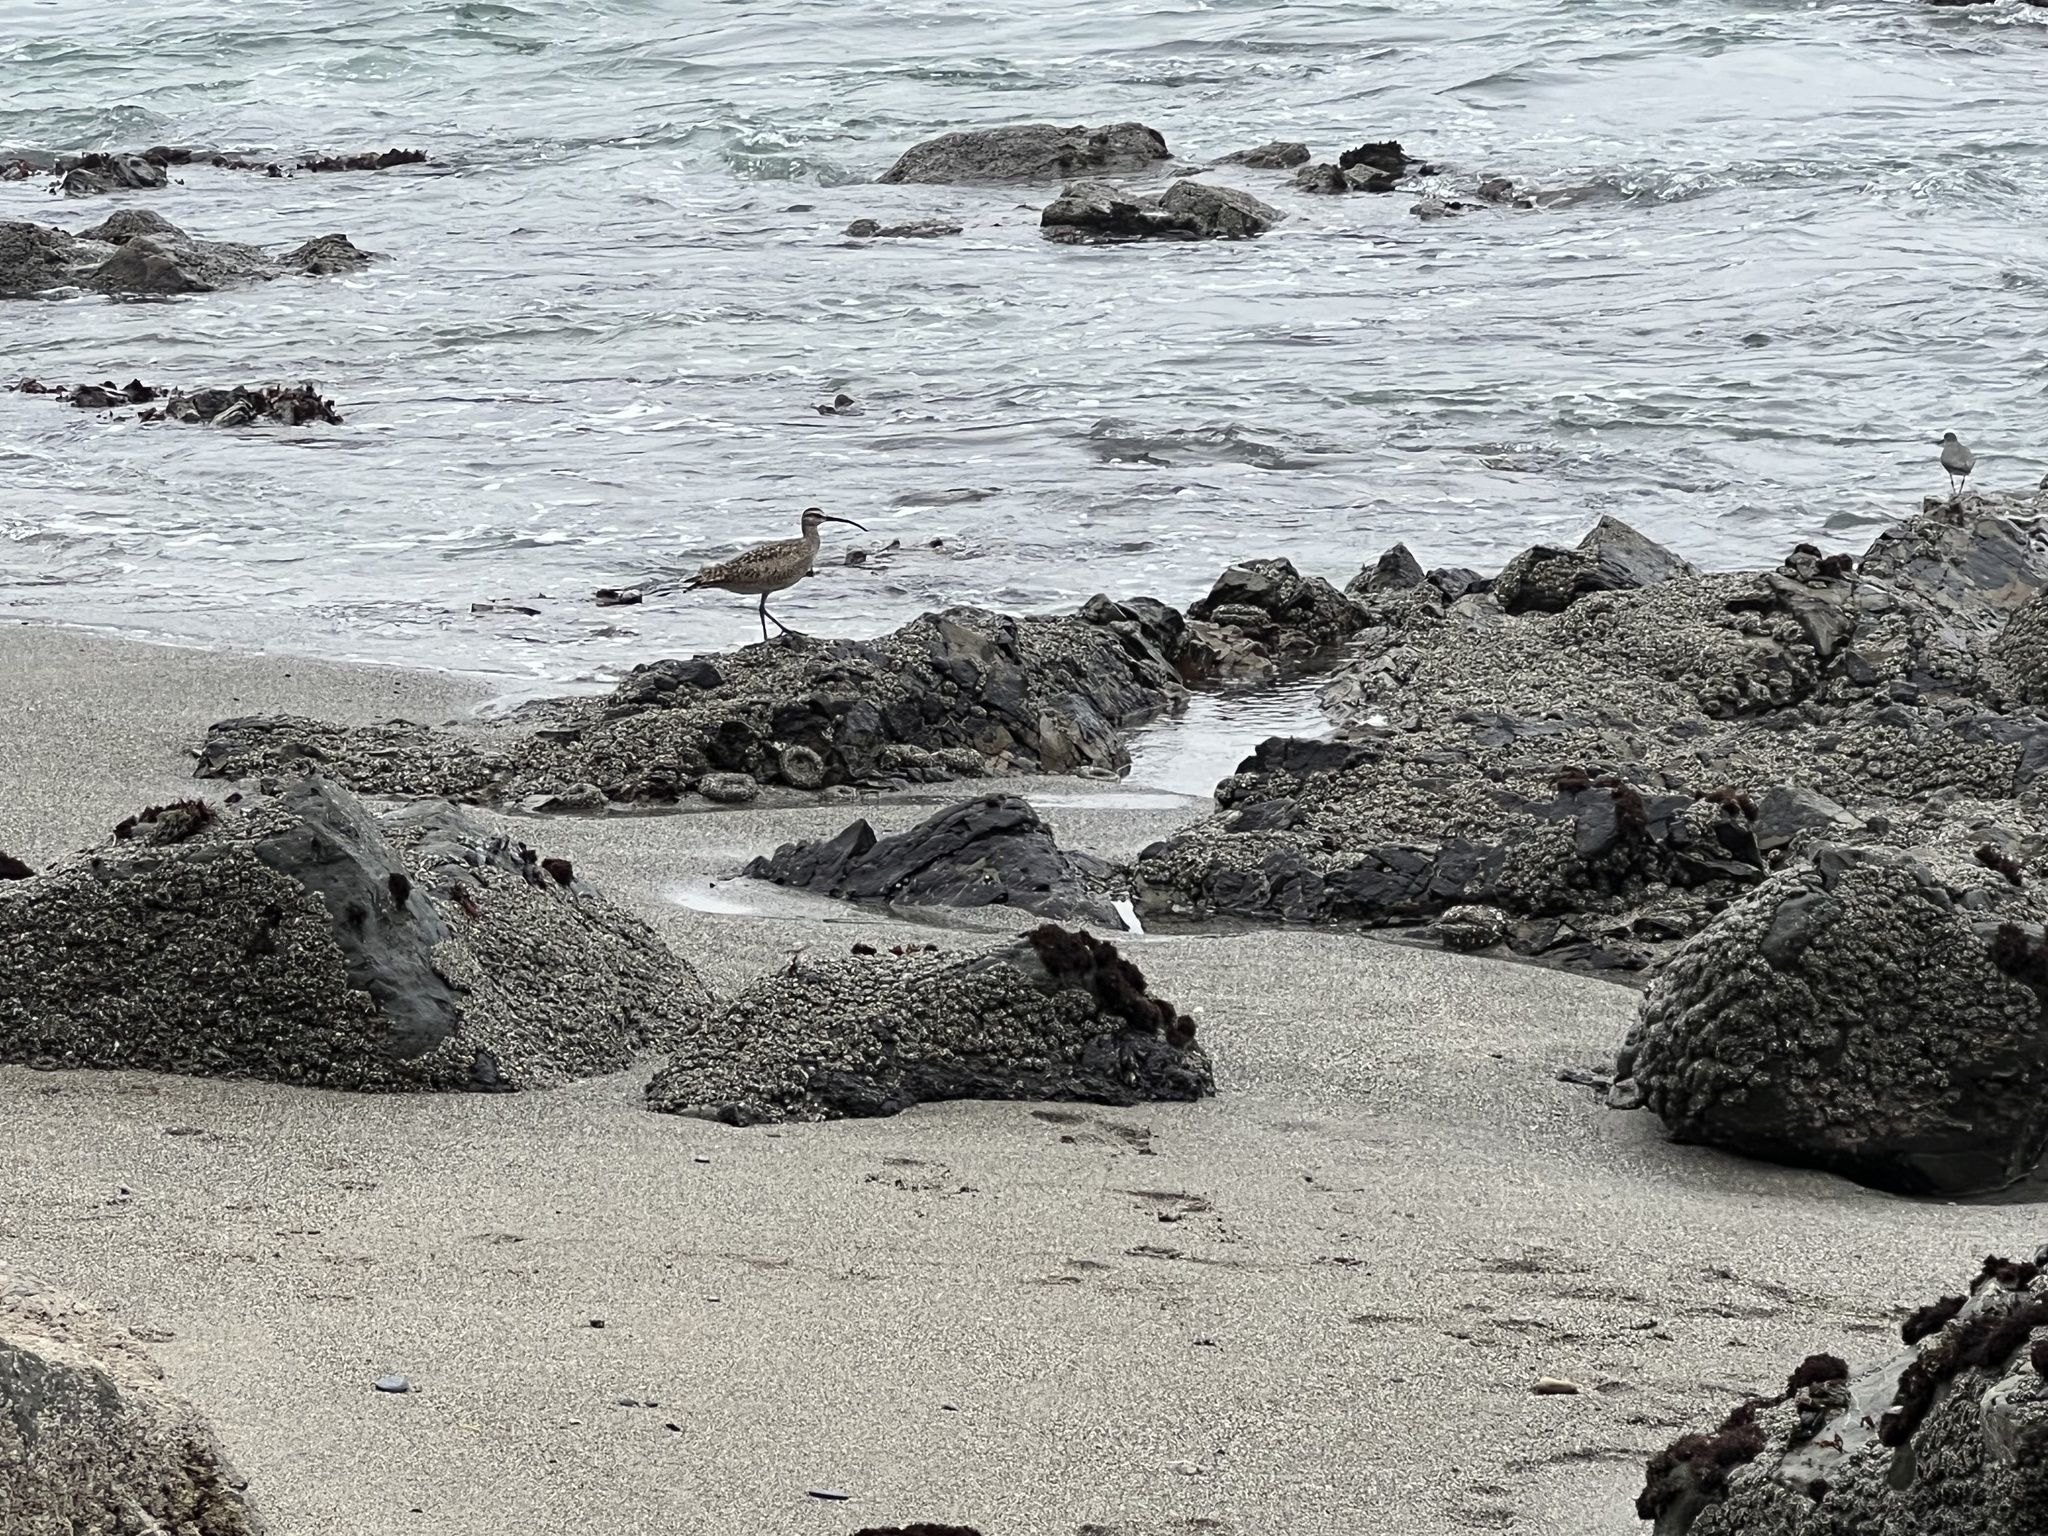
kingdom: Animalia
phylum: Chordata
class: Aves
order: Charadriiformes
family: Scolopacidae
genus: Numenius
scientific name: Numenius phaeopus
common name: Whimbrel
